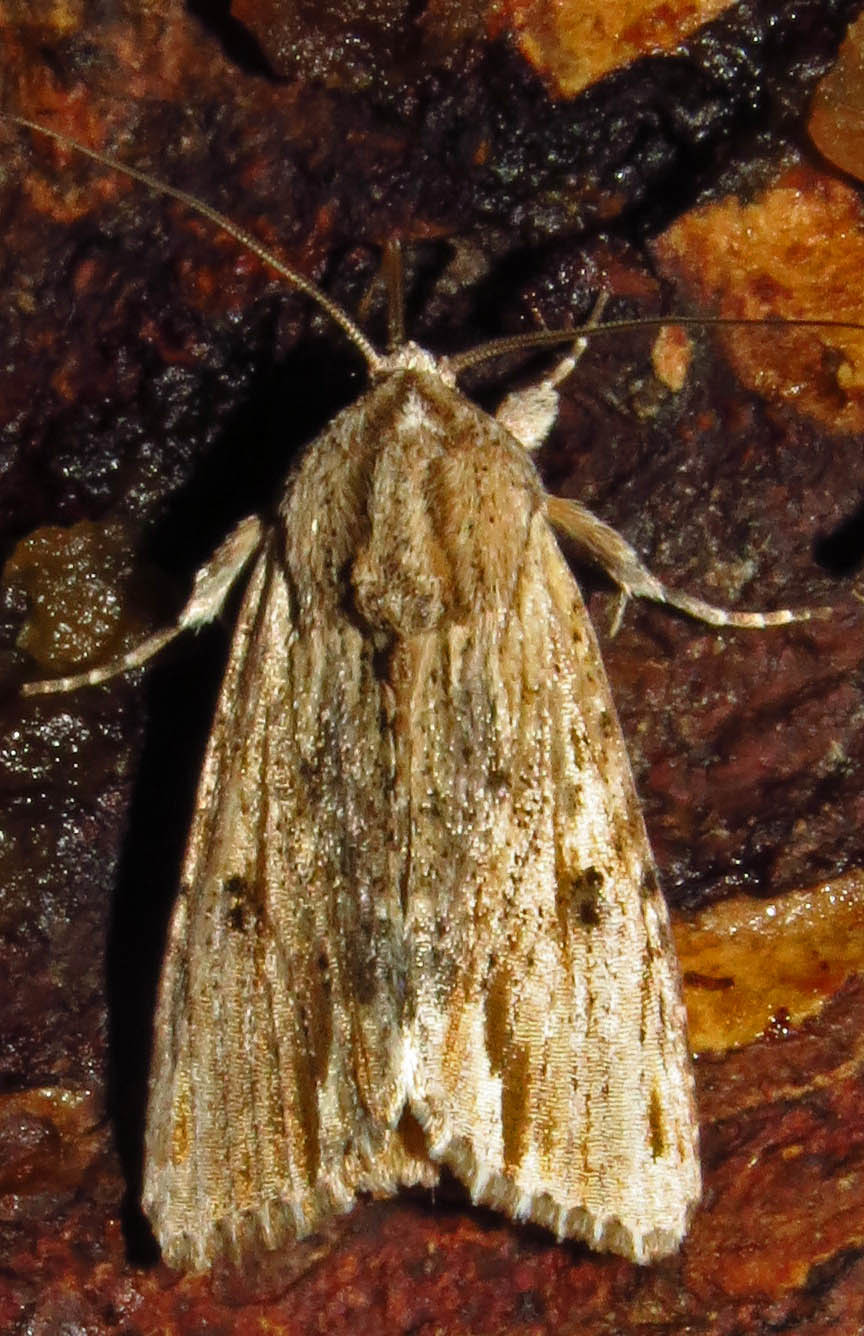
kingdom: Animalia
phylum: Arthropoda
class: Insecta
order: Lepidoptera
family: Noctuidae
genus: Spodoptera
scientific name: Spodoptera eridania
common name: Southern army worm
